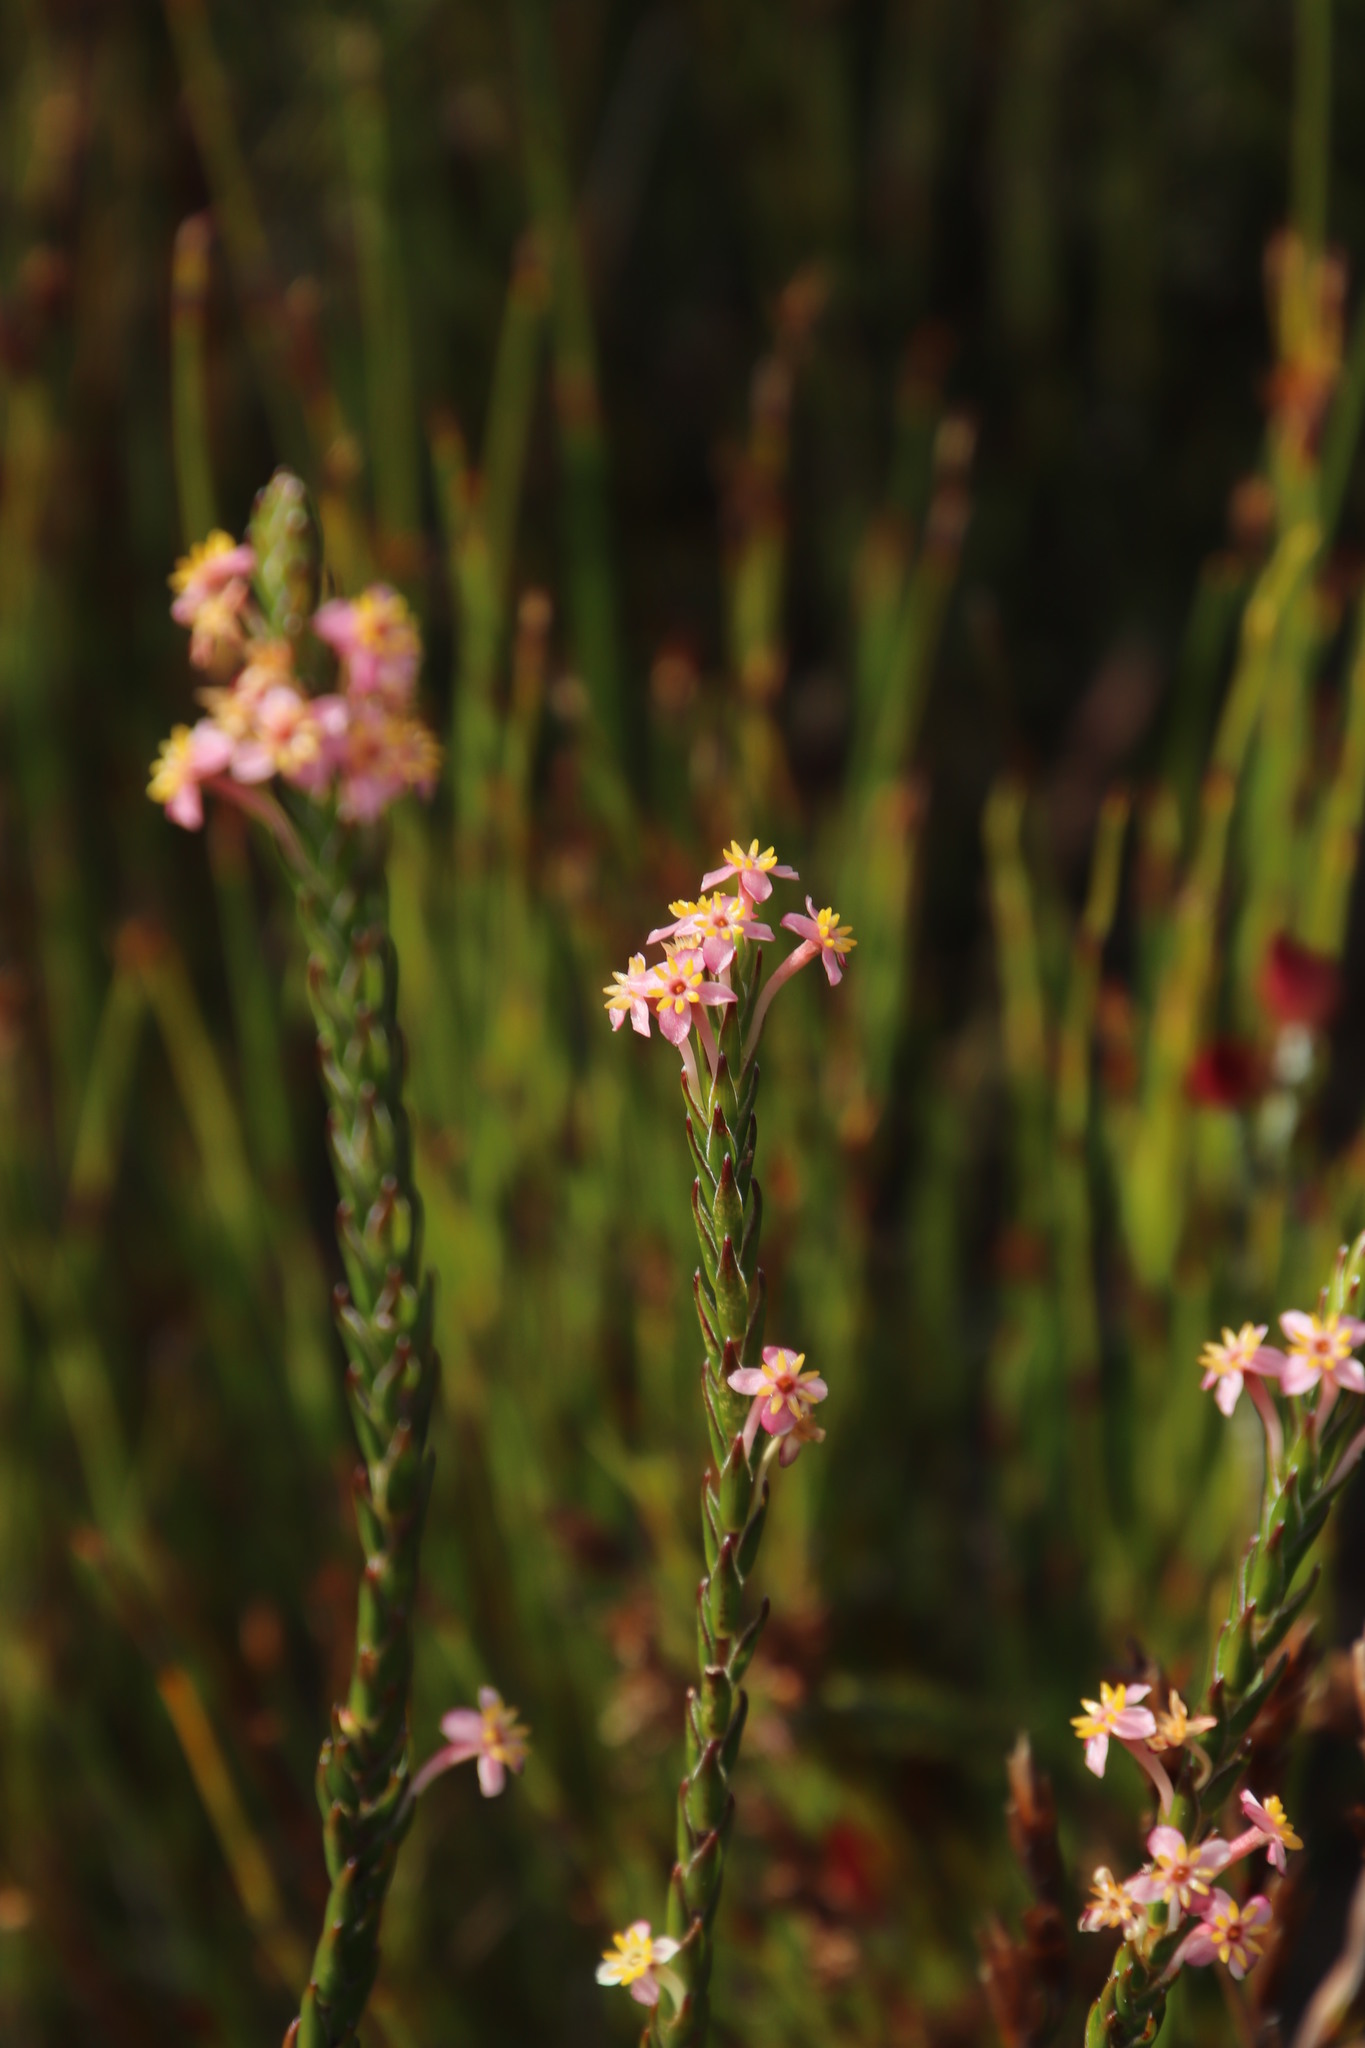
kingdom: Plantae
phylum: Tracheophyta
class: Magnoliopsida
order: Malvales
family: Thymelaeaceae
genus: Struthiola
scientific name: Struthiola ciliata
